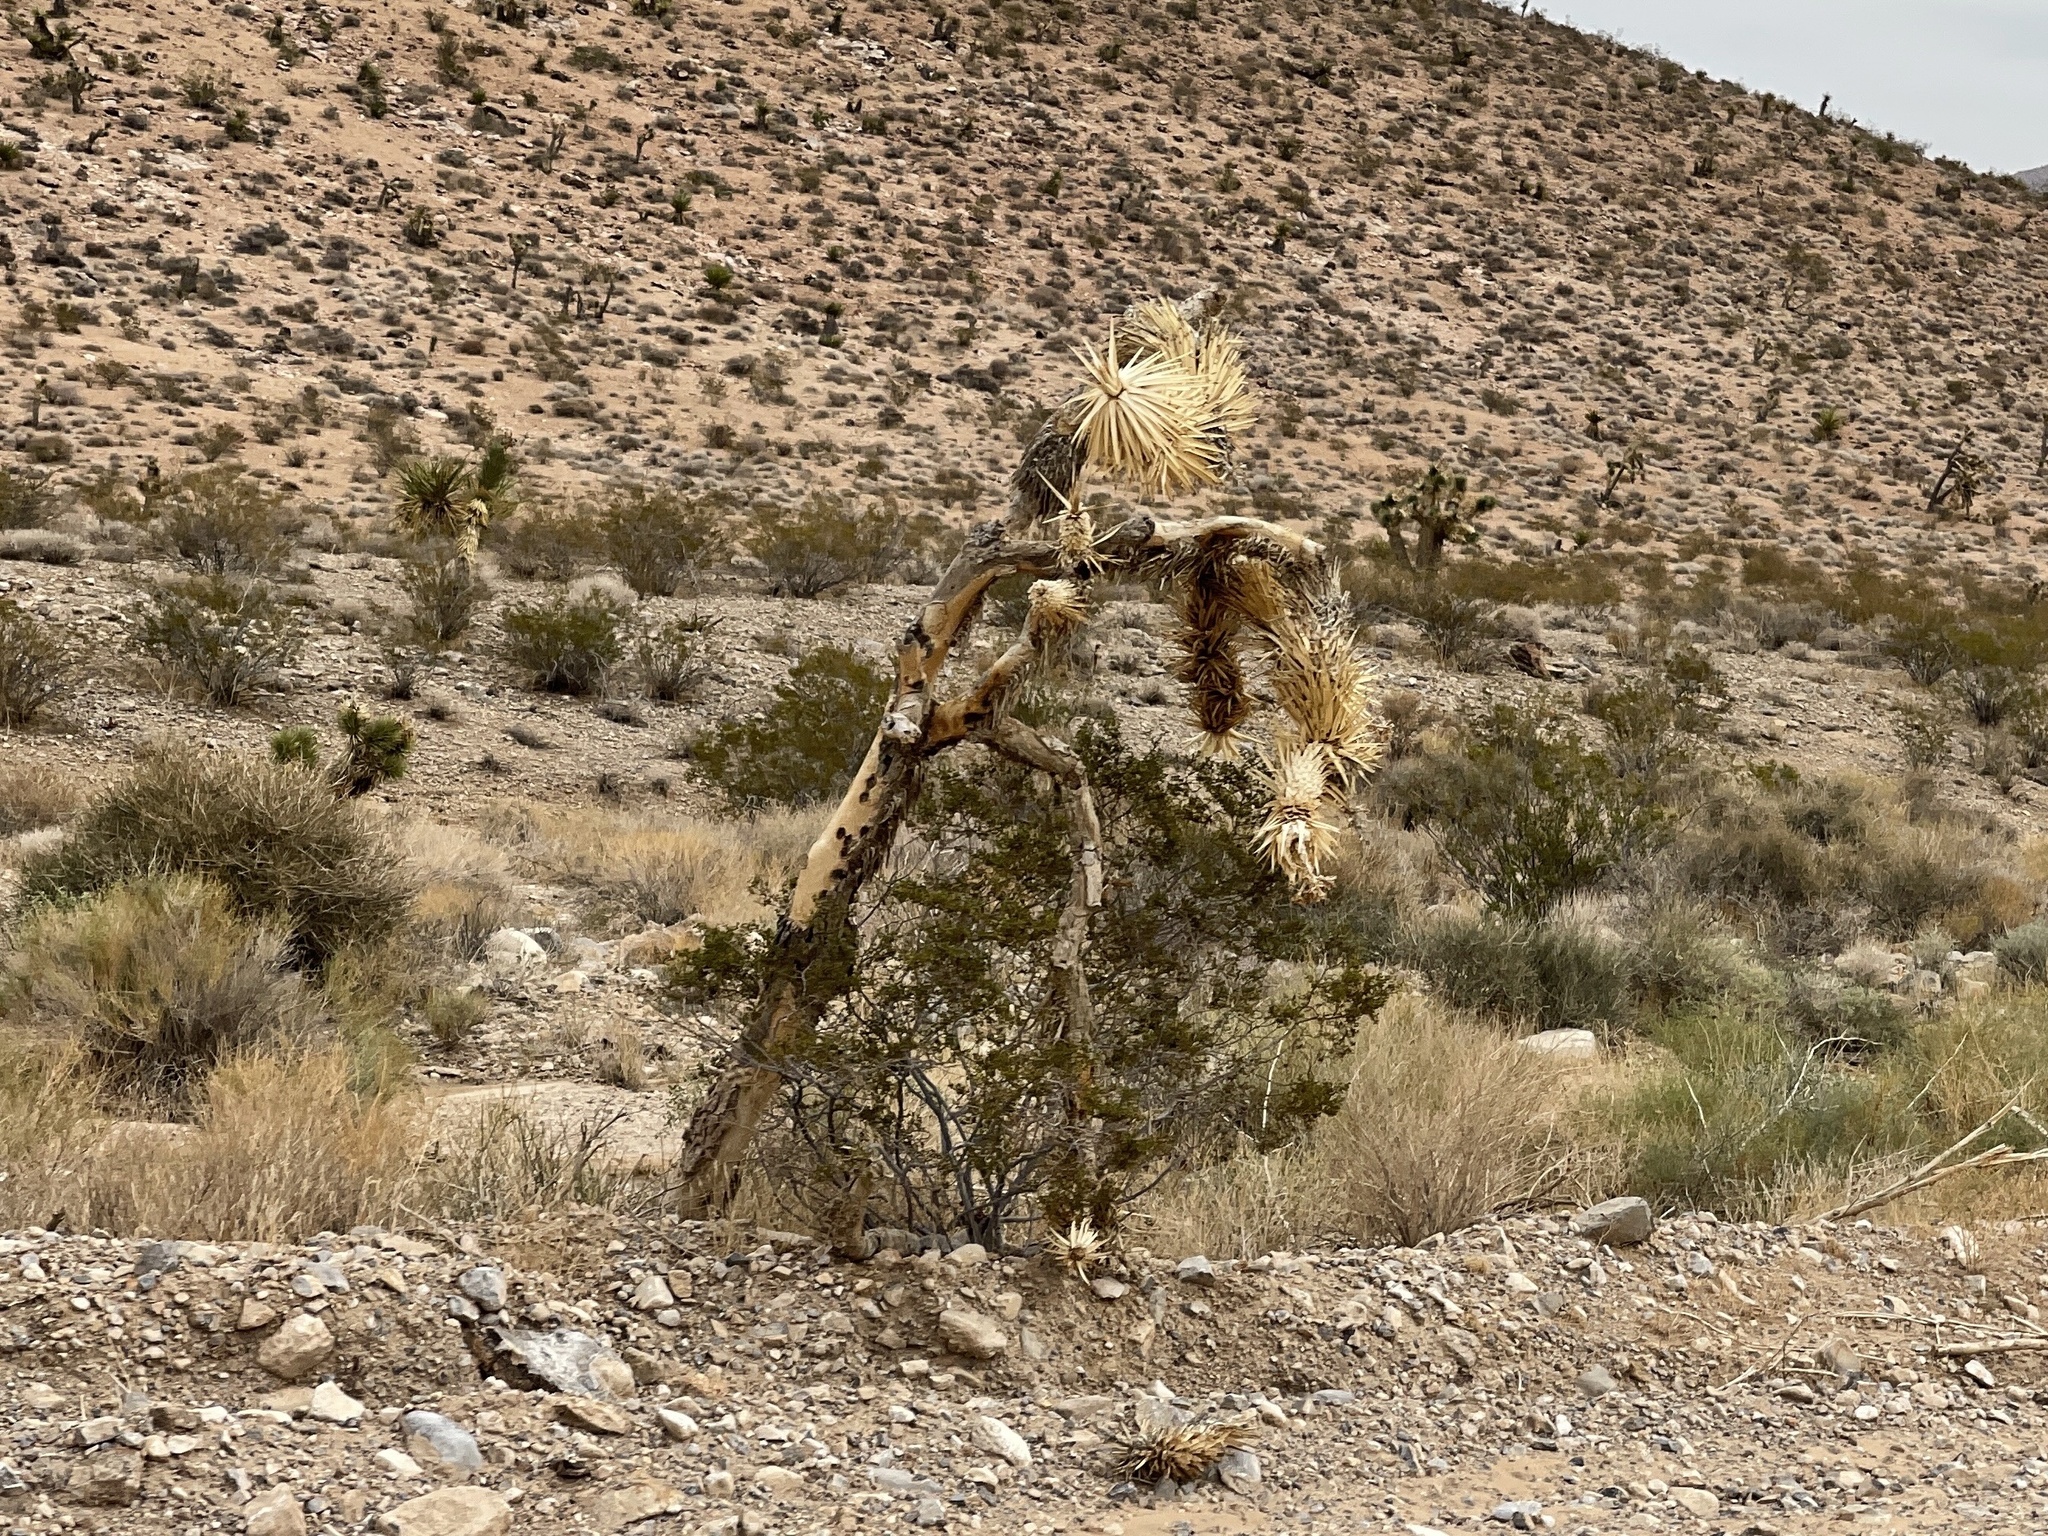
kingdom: Plantae
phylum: Tracheophyta
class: Liliopsida
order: Asparagales
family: Asparagaceae
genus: Yucca
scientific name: Yucca brevifolia
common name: Joshua tree
